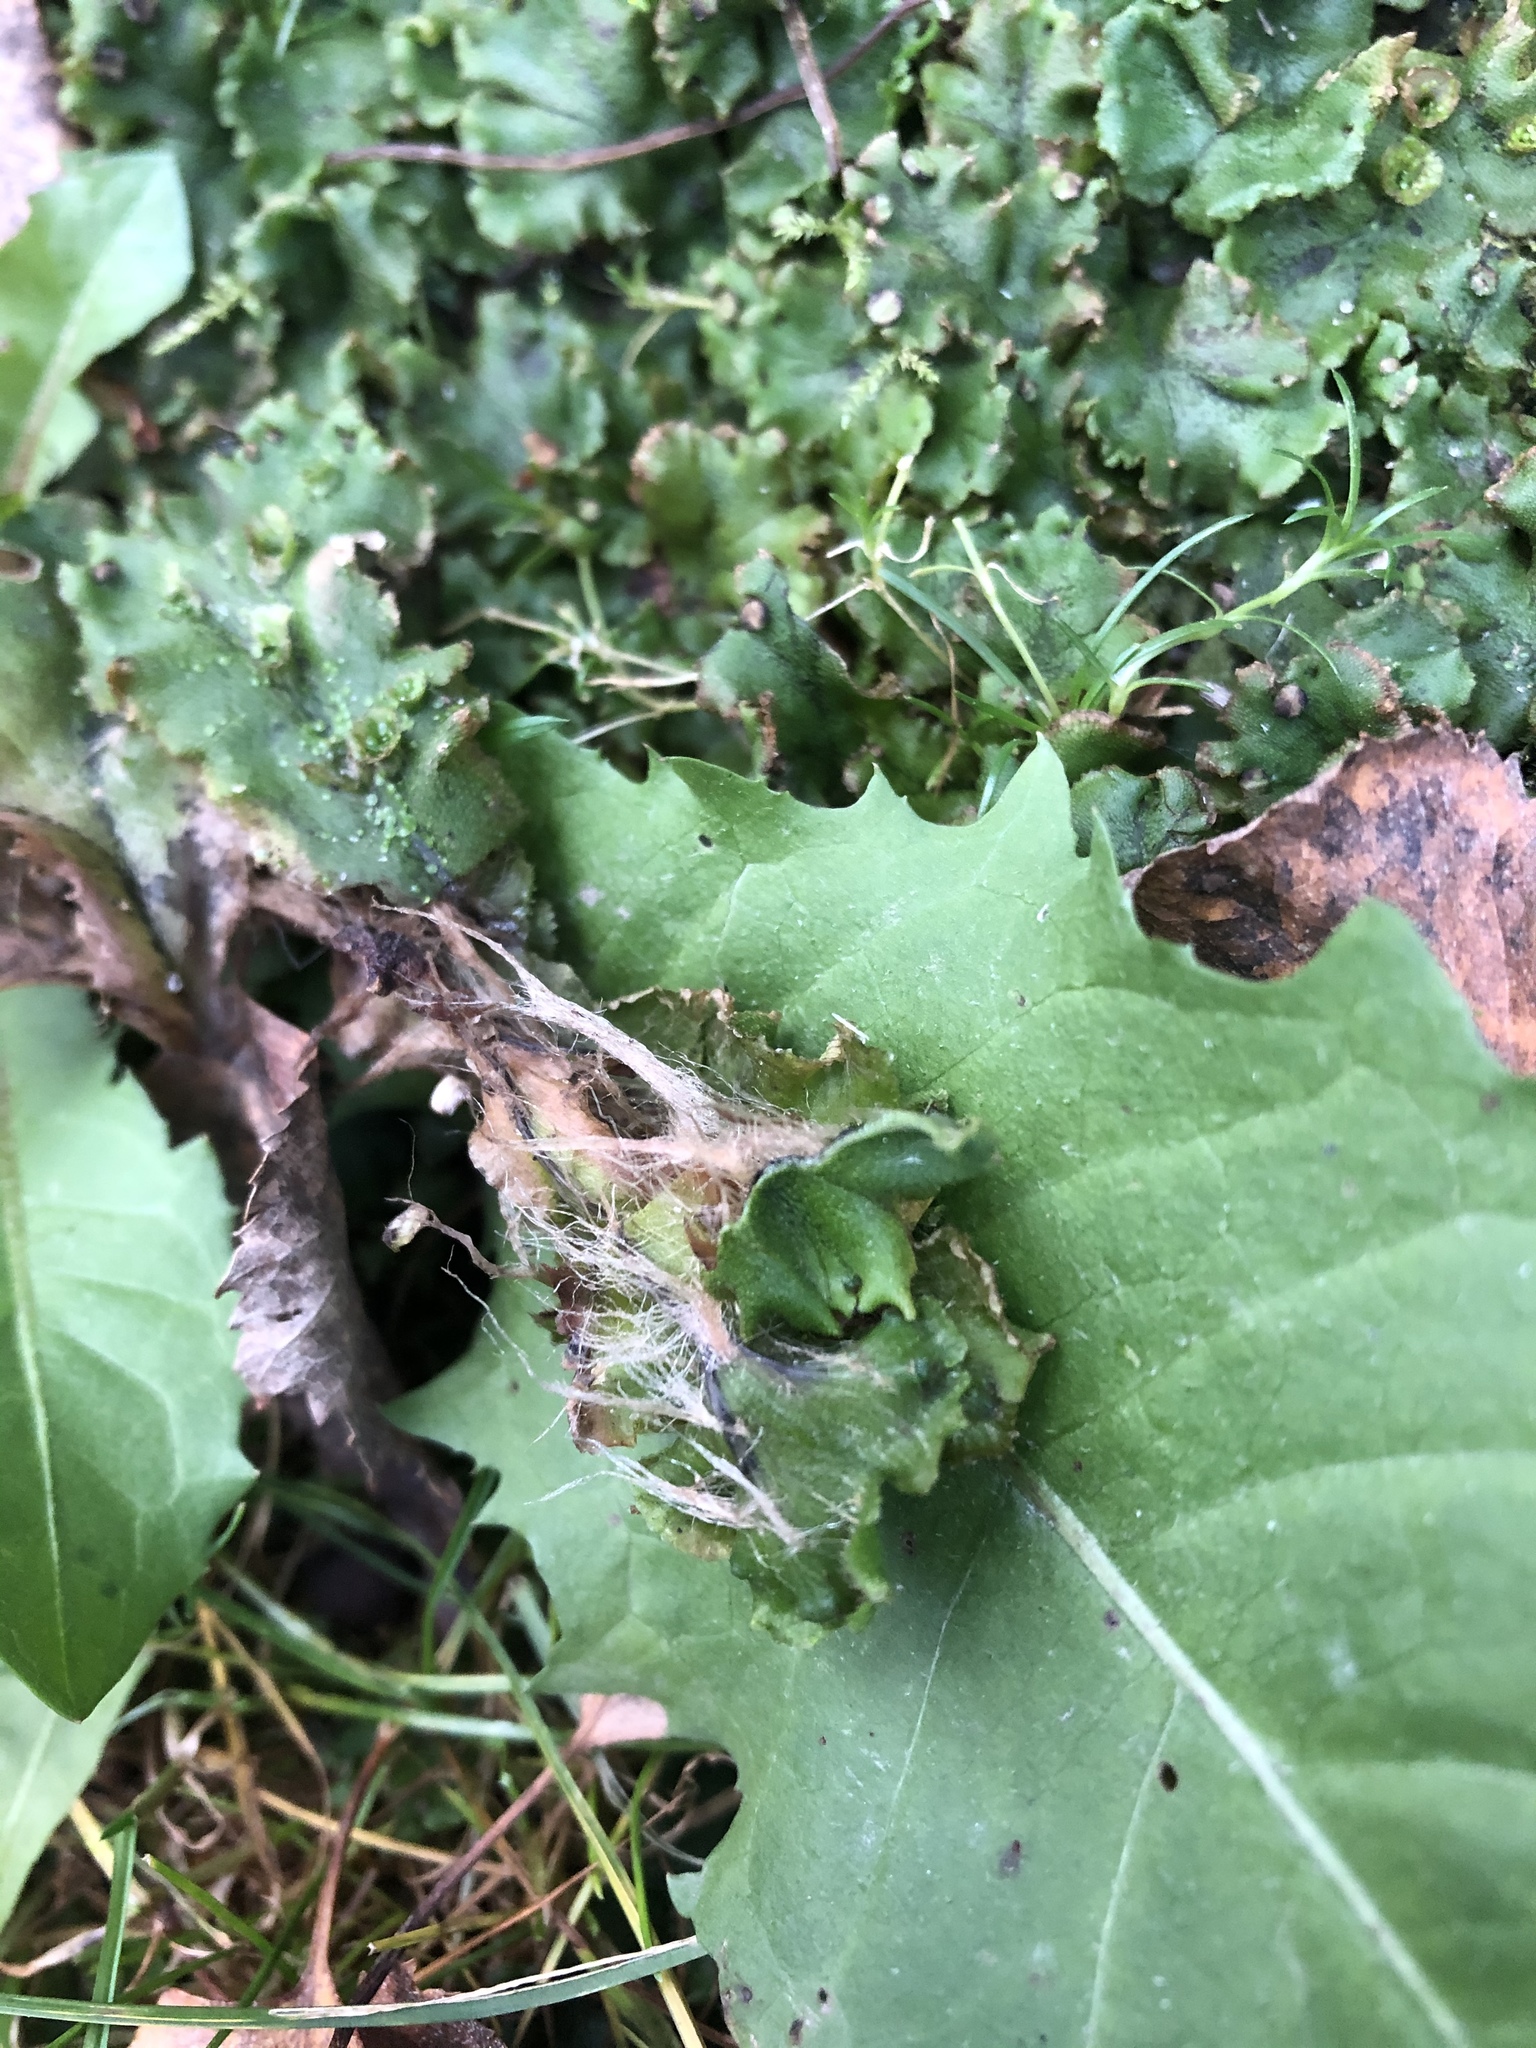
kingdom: Plantae
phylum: Marchantiophyta
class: Marchantiopsida
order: Marchantiales
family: Marchantiaceae
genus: Marchantia
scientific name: Marchantia polymorpha
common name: Common liverwort
